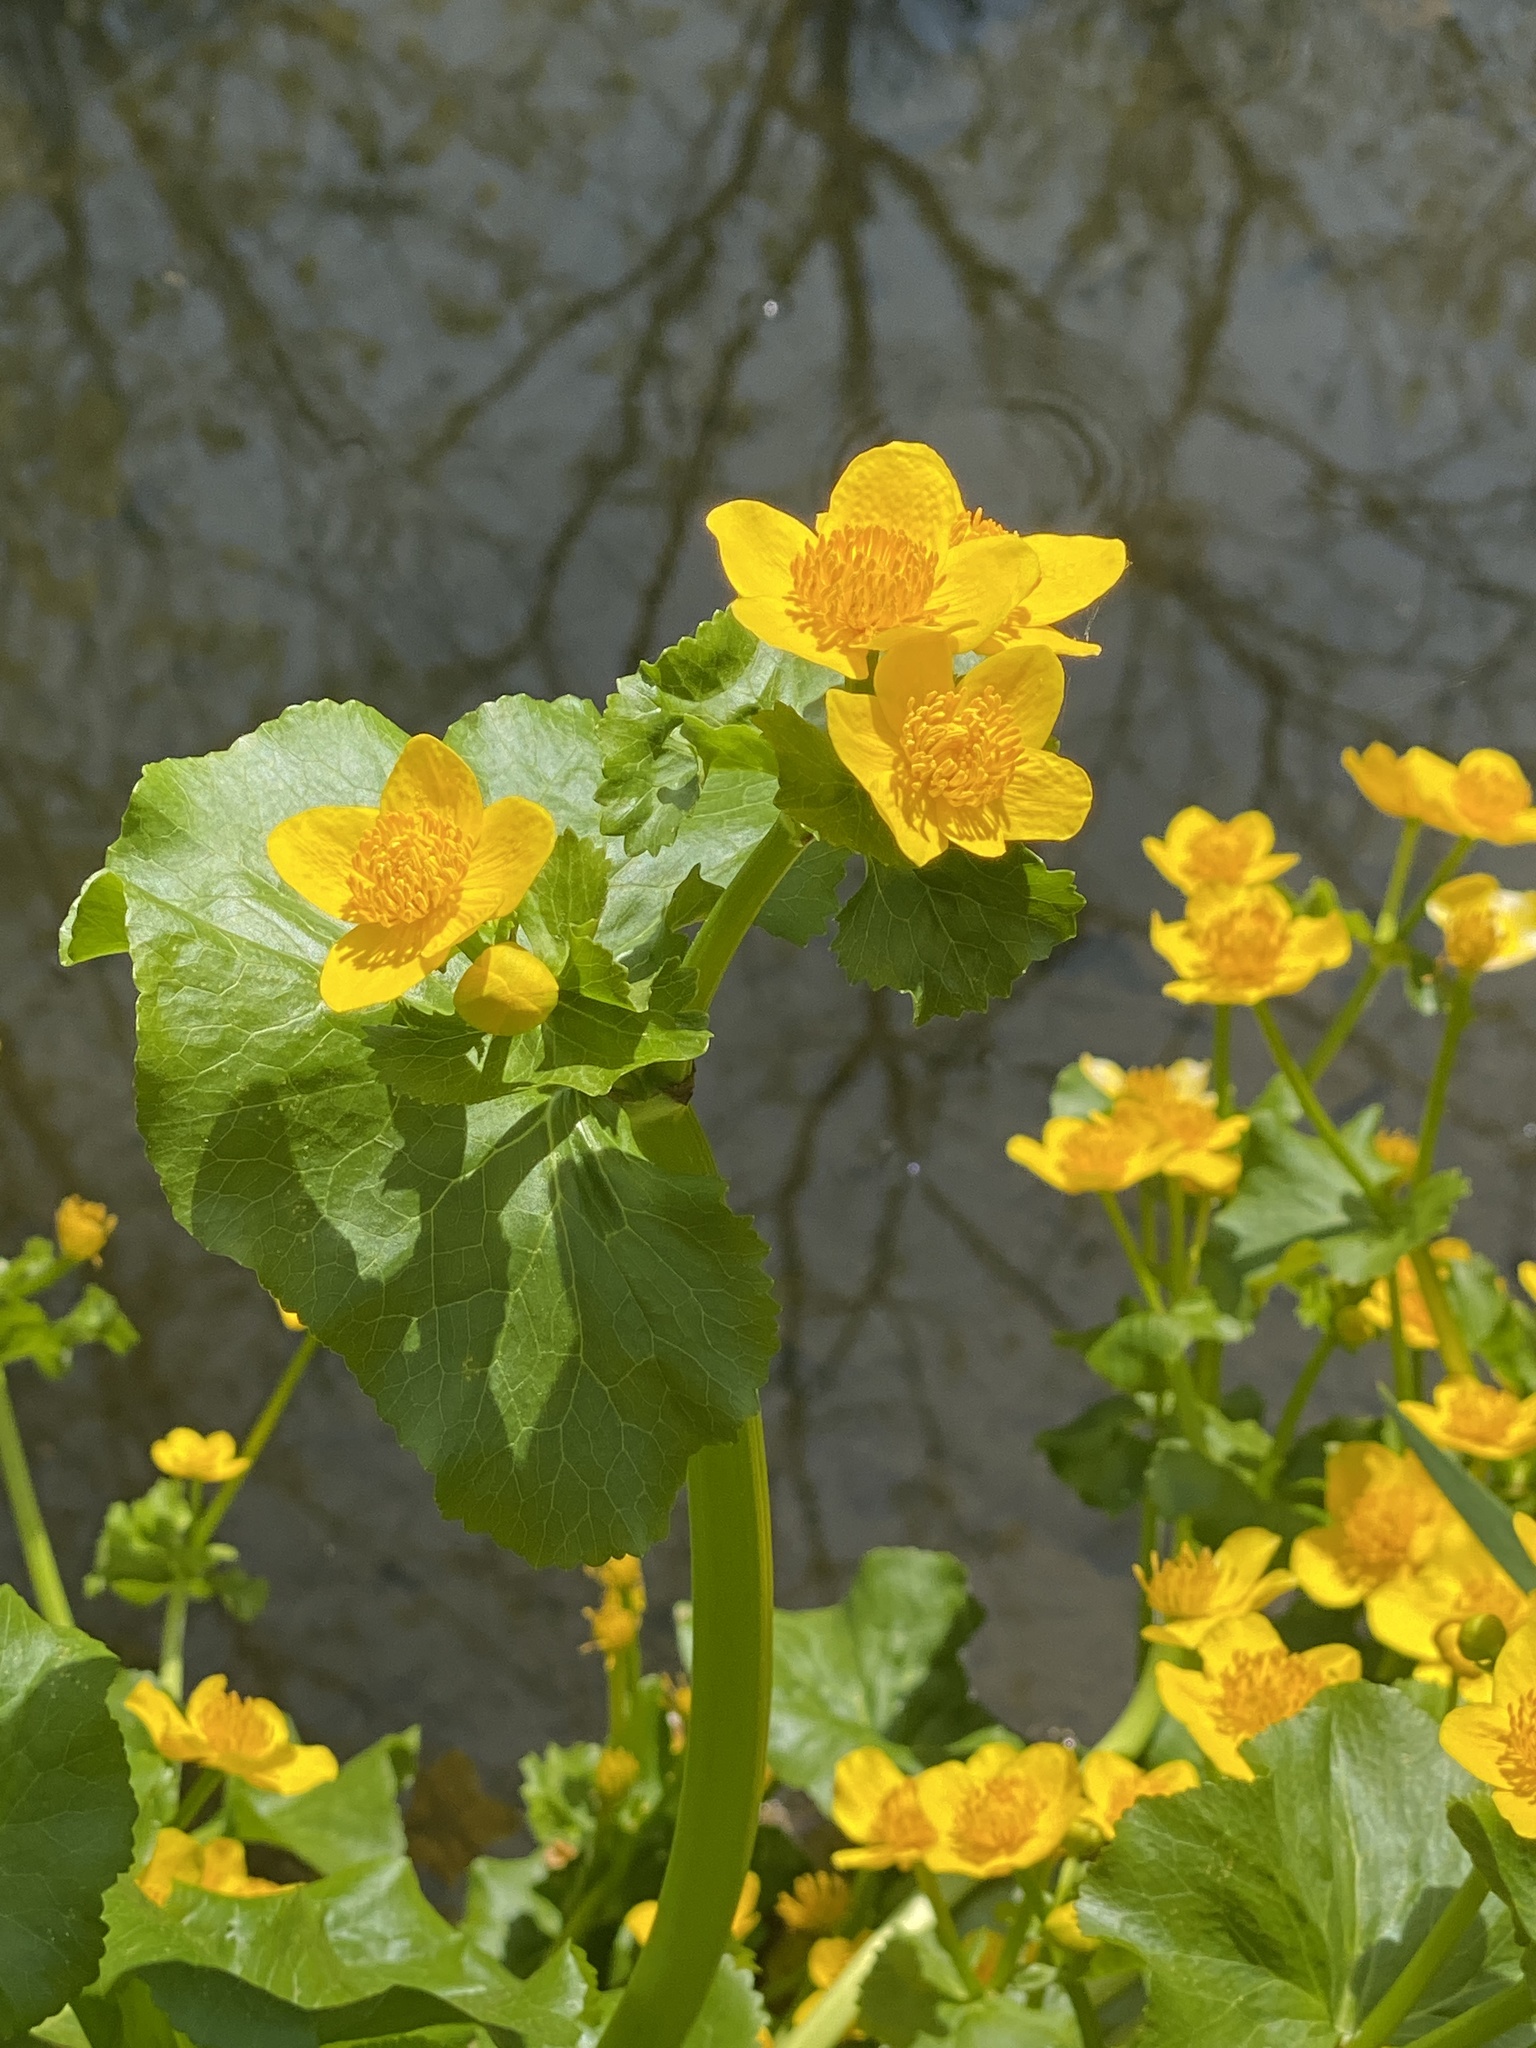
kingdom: Plantae
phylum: Tracheophyta
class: Magnoliopsida
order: Ranunculales
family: Ranunculaceae
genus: Caltha
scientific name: Caltha palustris
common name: Marsh marigold
